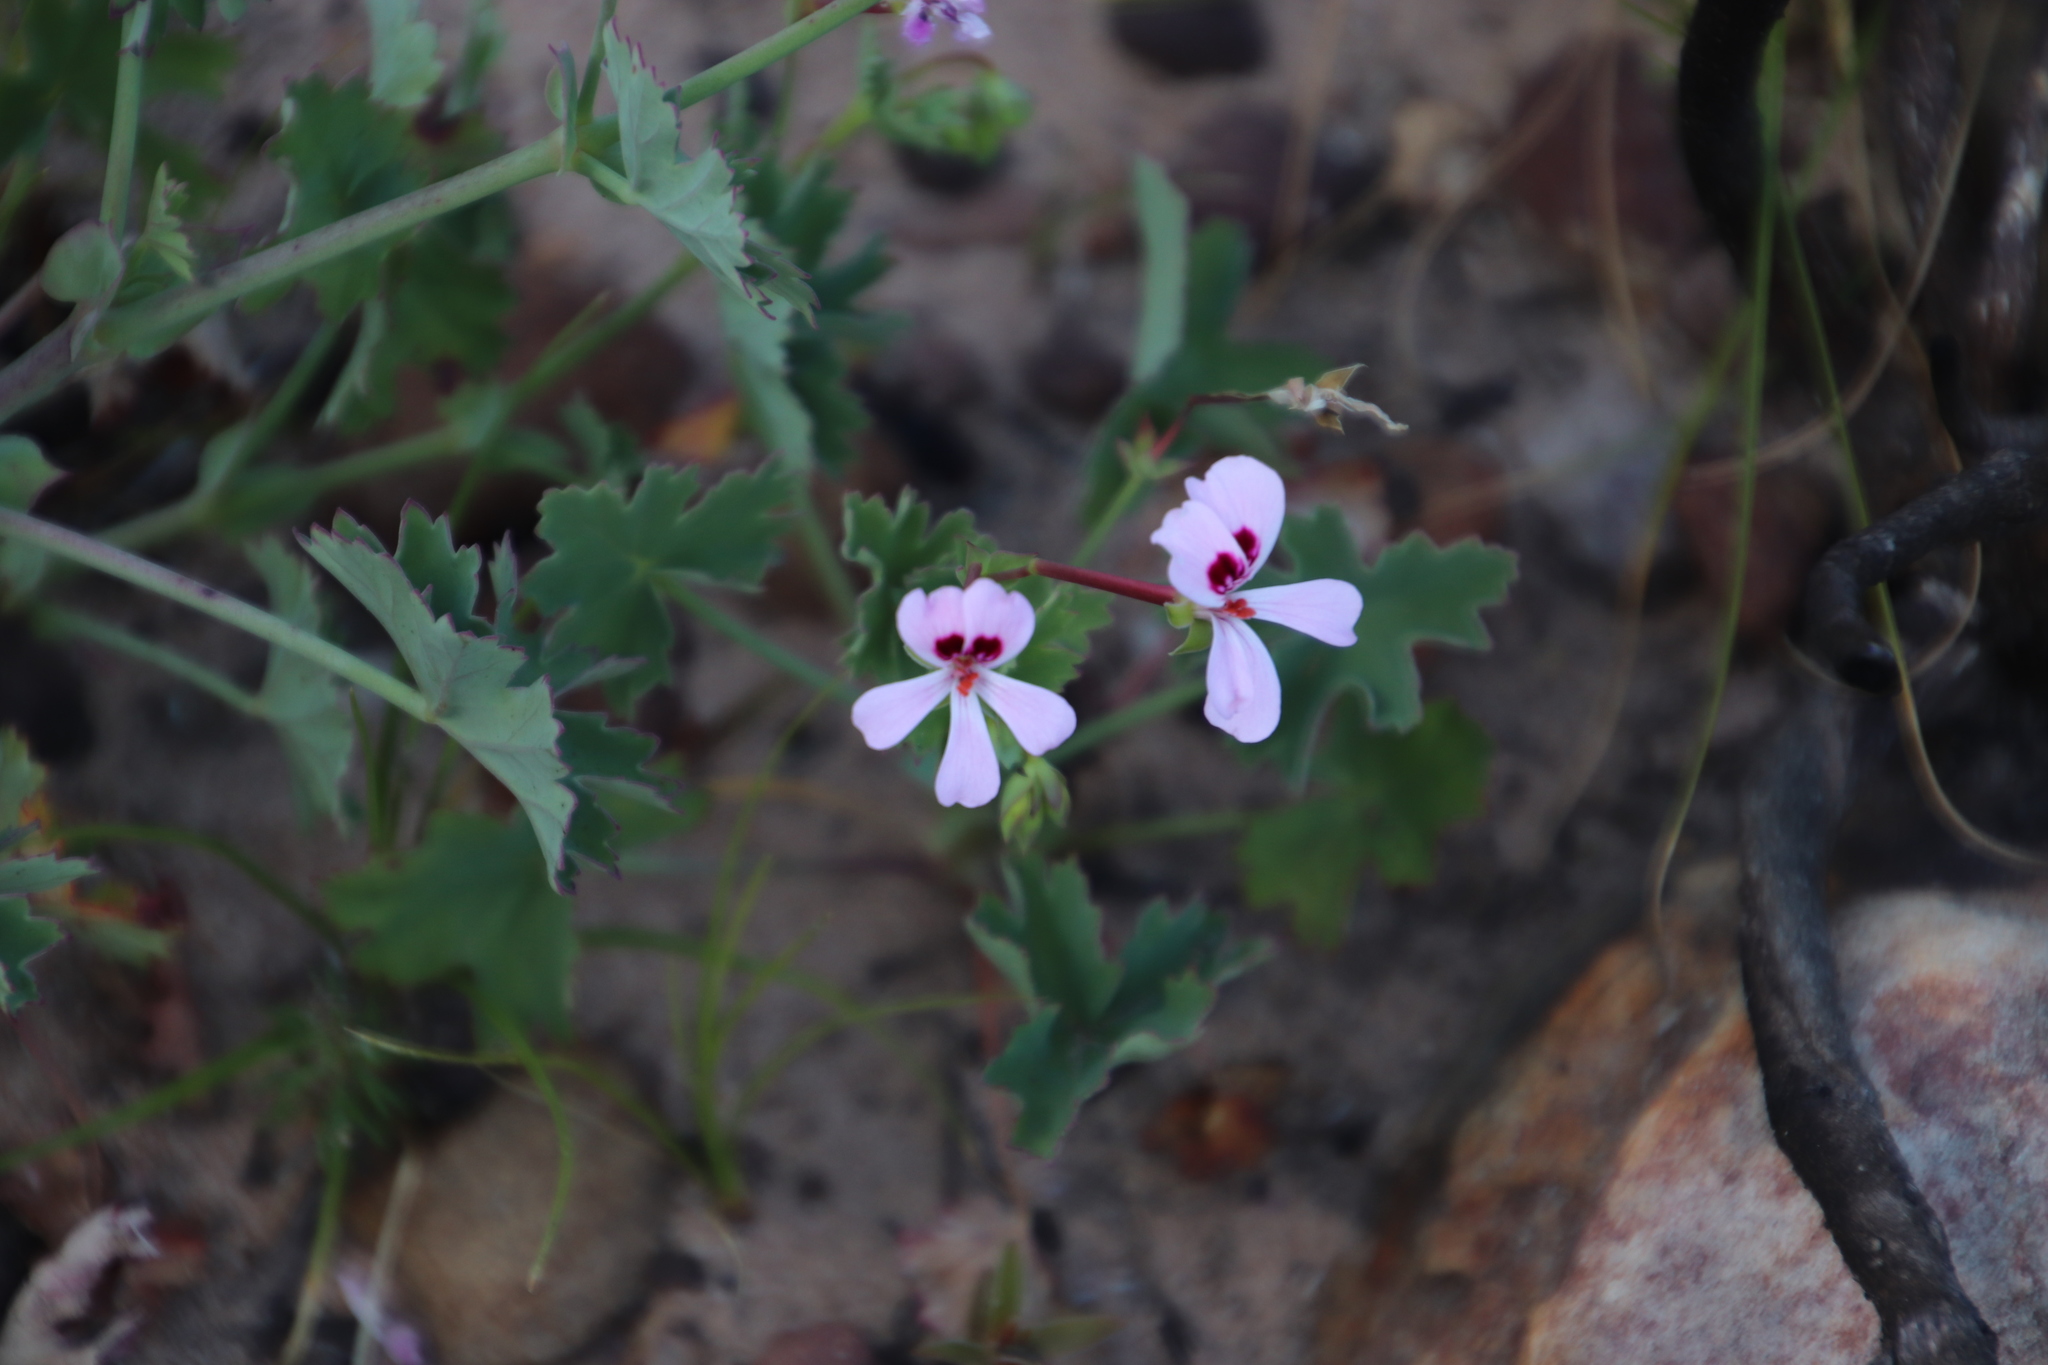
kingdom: Plantae
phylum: Tracheophyta
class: Magnoliopsida
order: Geraniales
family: Geraniaceae
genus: Pelargonium
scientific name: Pelargonium patulum
